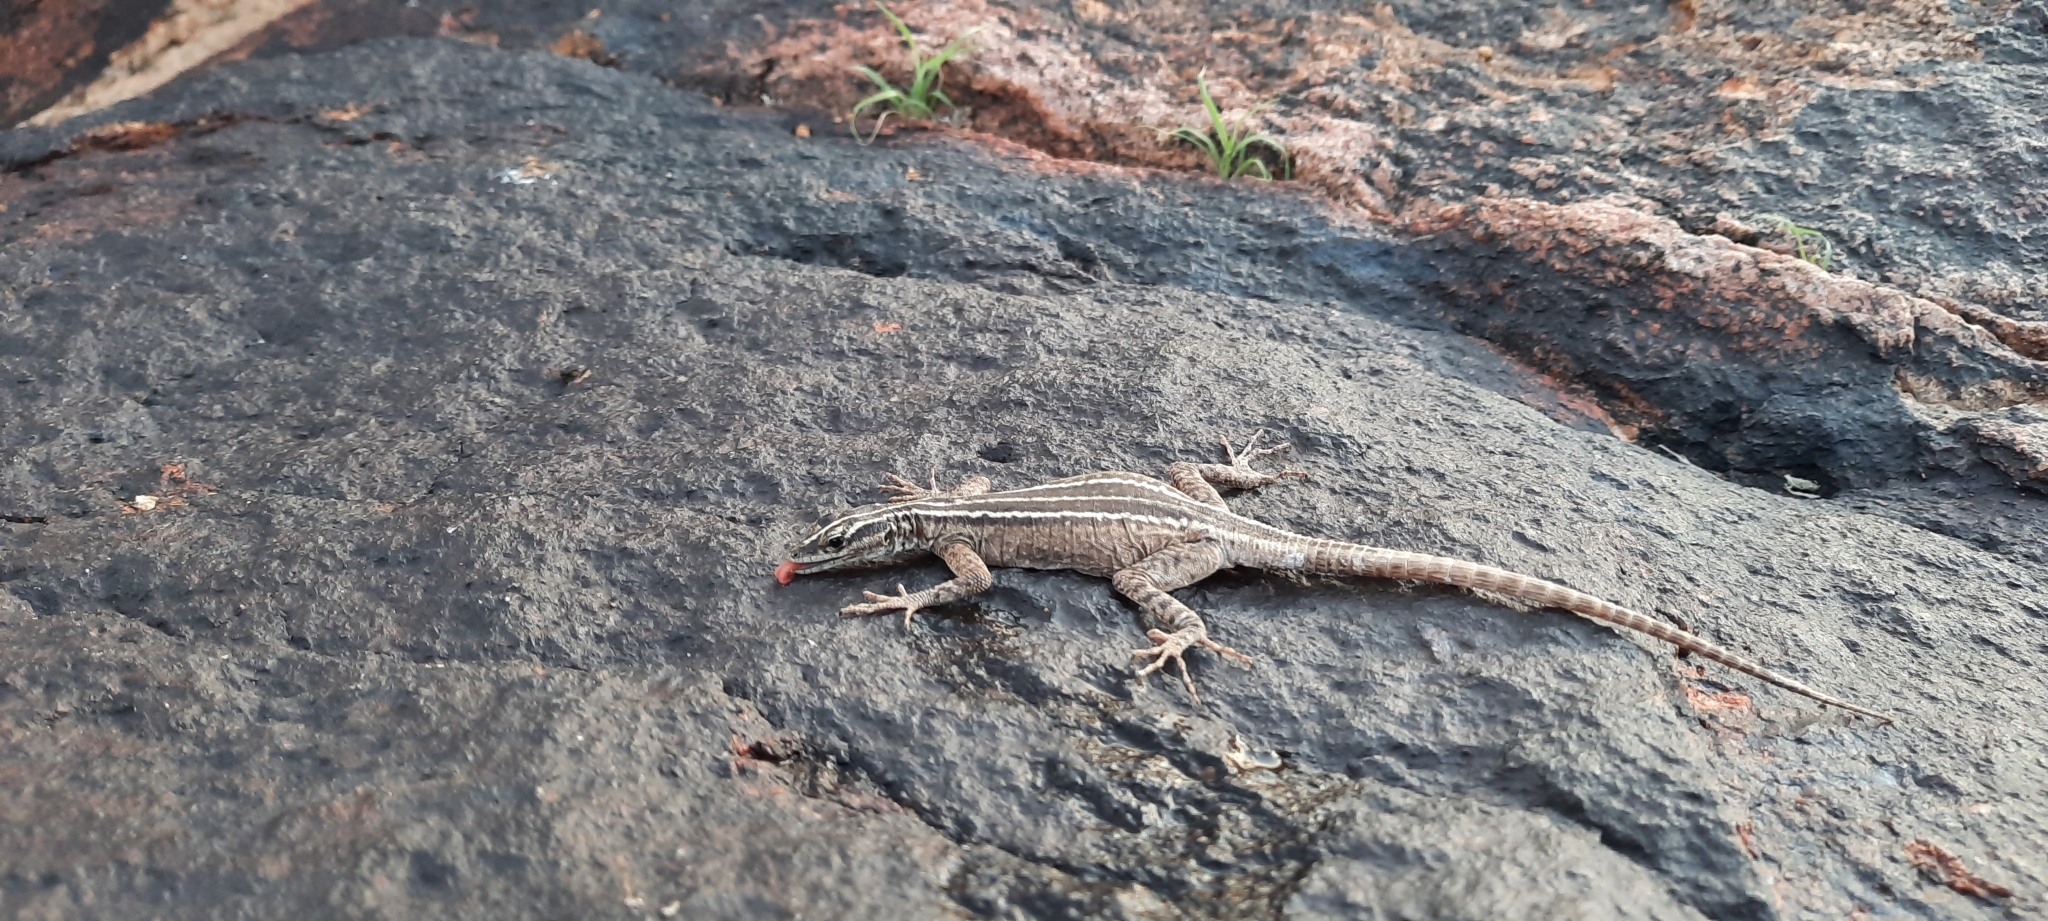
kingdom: Animalia
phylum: Chordata
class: Squamata
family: Cordylidae
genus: Platysaurus
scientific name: Platysaurus broadleyi
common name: Augrabies flat lizard
